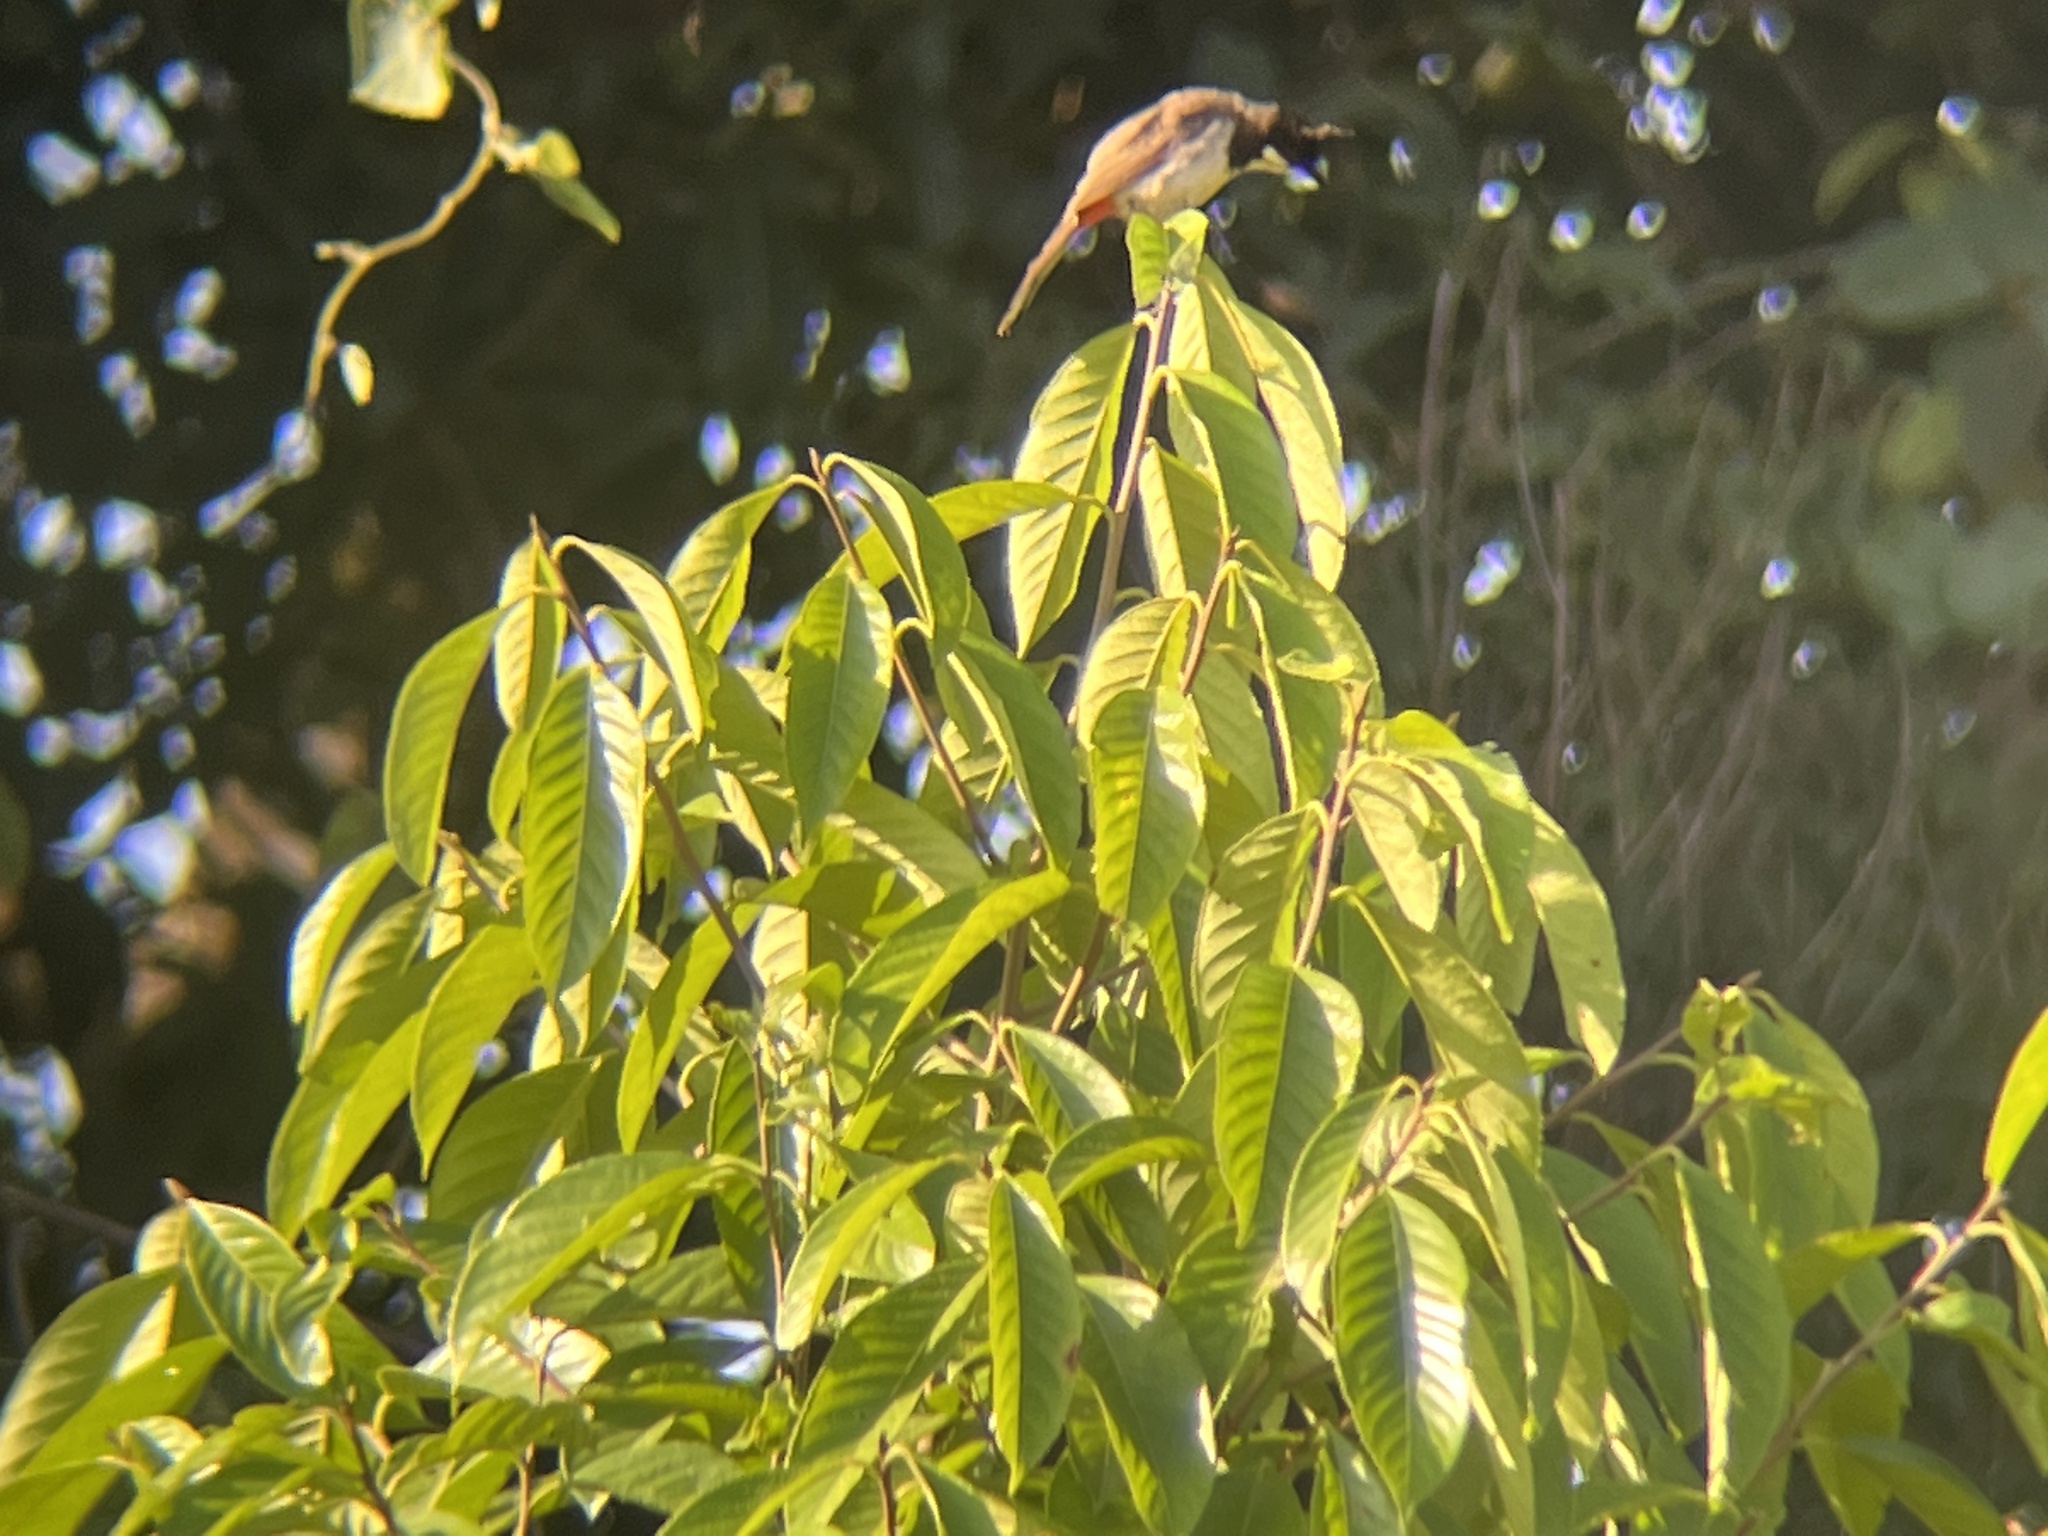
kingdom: Animalia
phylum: Chordata
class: Aves
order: Passeriformes
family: Pycnonotidae
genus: Pycnonotus
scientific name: Pycnonotus jocosus
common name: Red-whiskered bulbul
